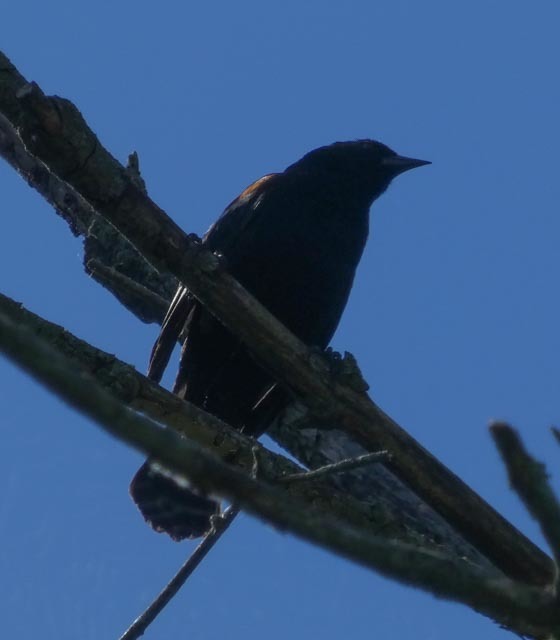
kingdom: Animalia
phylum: Chordata
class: Aves
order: Passeriformes
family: Icteridae
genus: Agelaius
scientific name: Agelaius phoeniceus
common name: Red-winged blackbird
